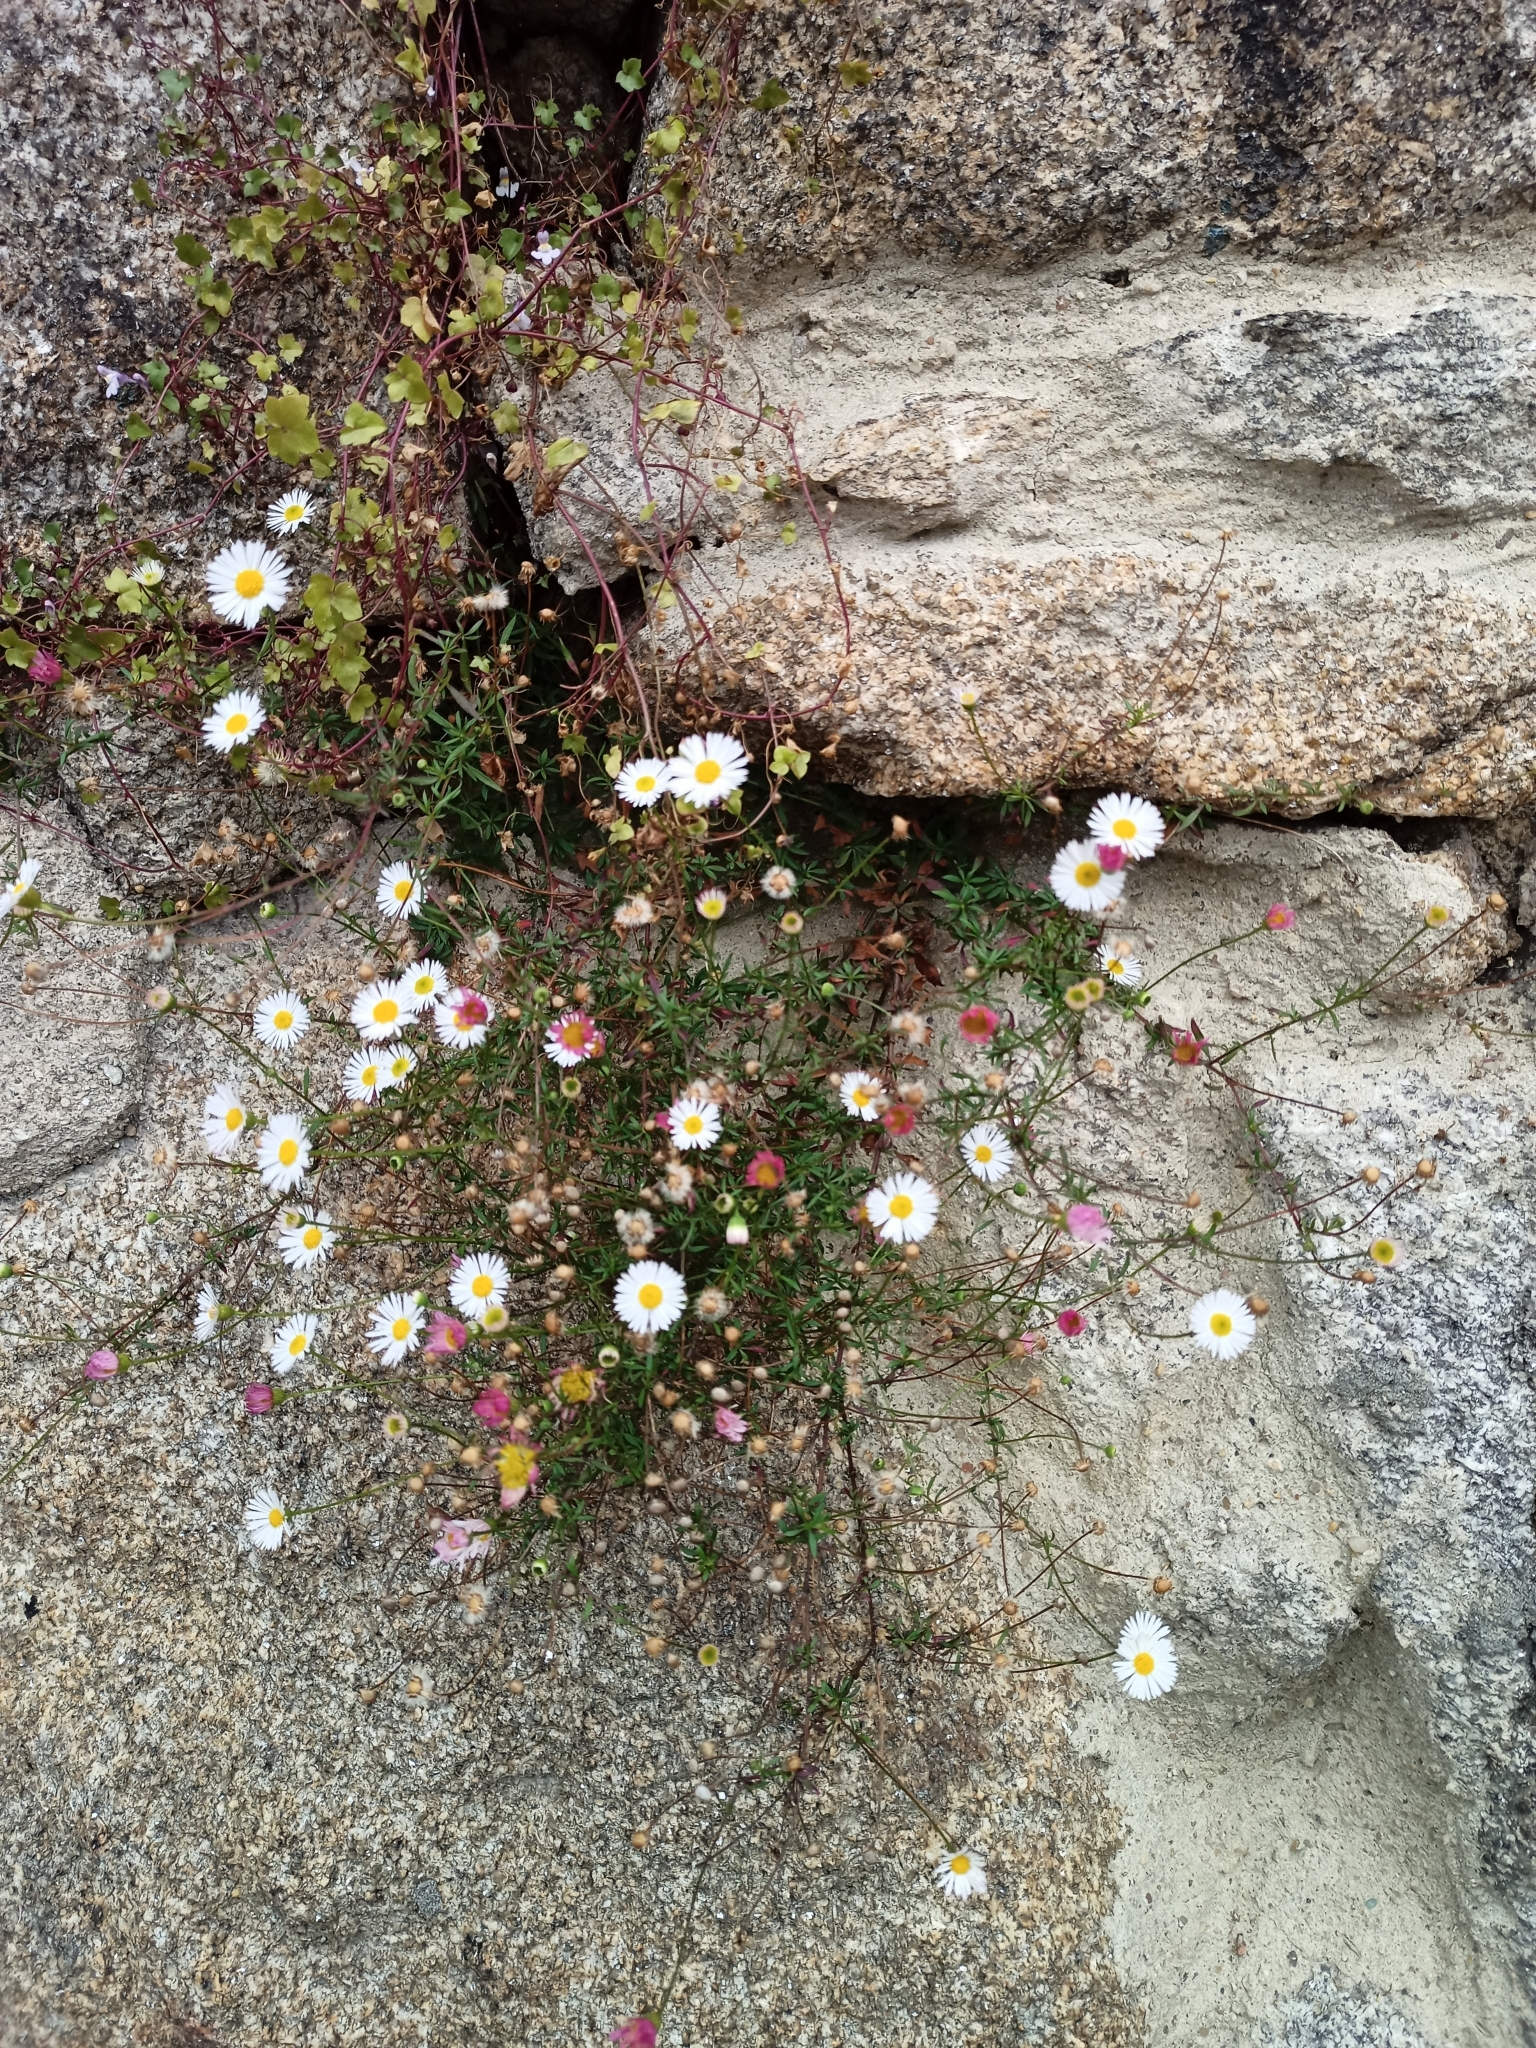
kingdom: Plantae
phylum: Tracheophyta
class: Magnoliopsida
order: Asterales
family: Asteraceae
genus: Erigeron
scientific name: Erigeron karvinskianus
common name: Mexican fleabane
